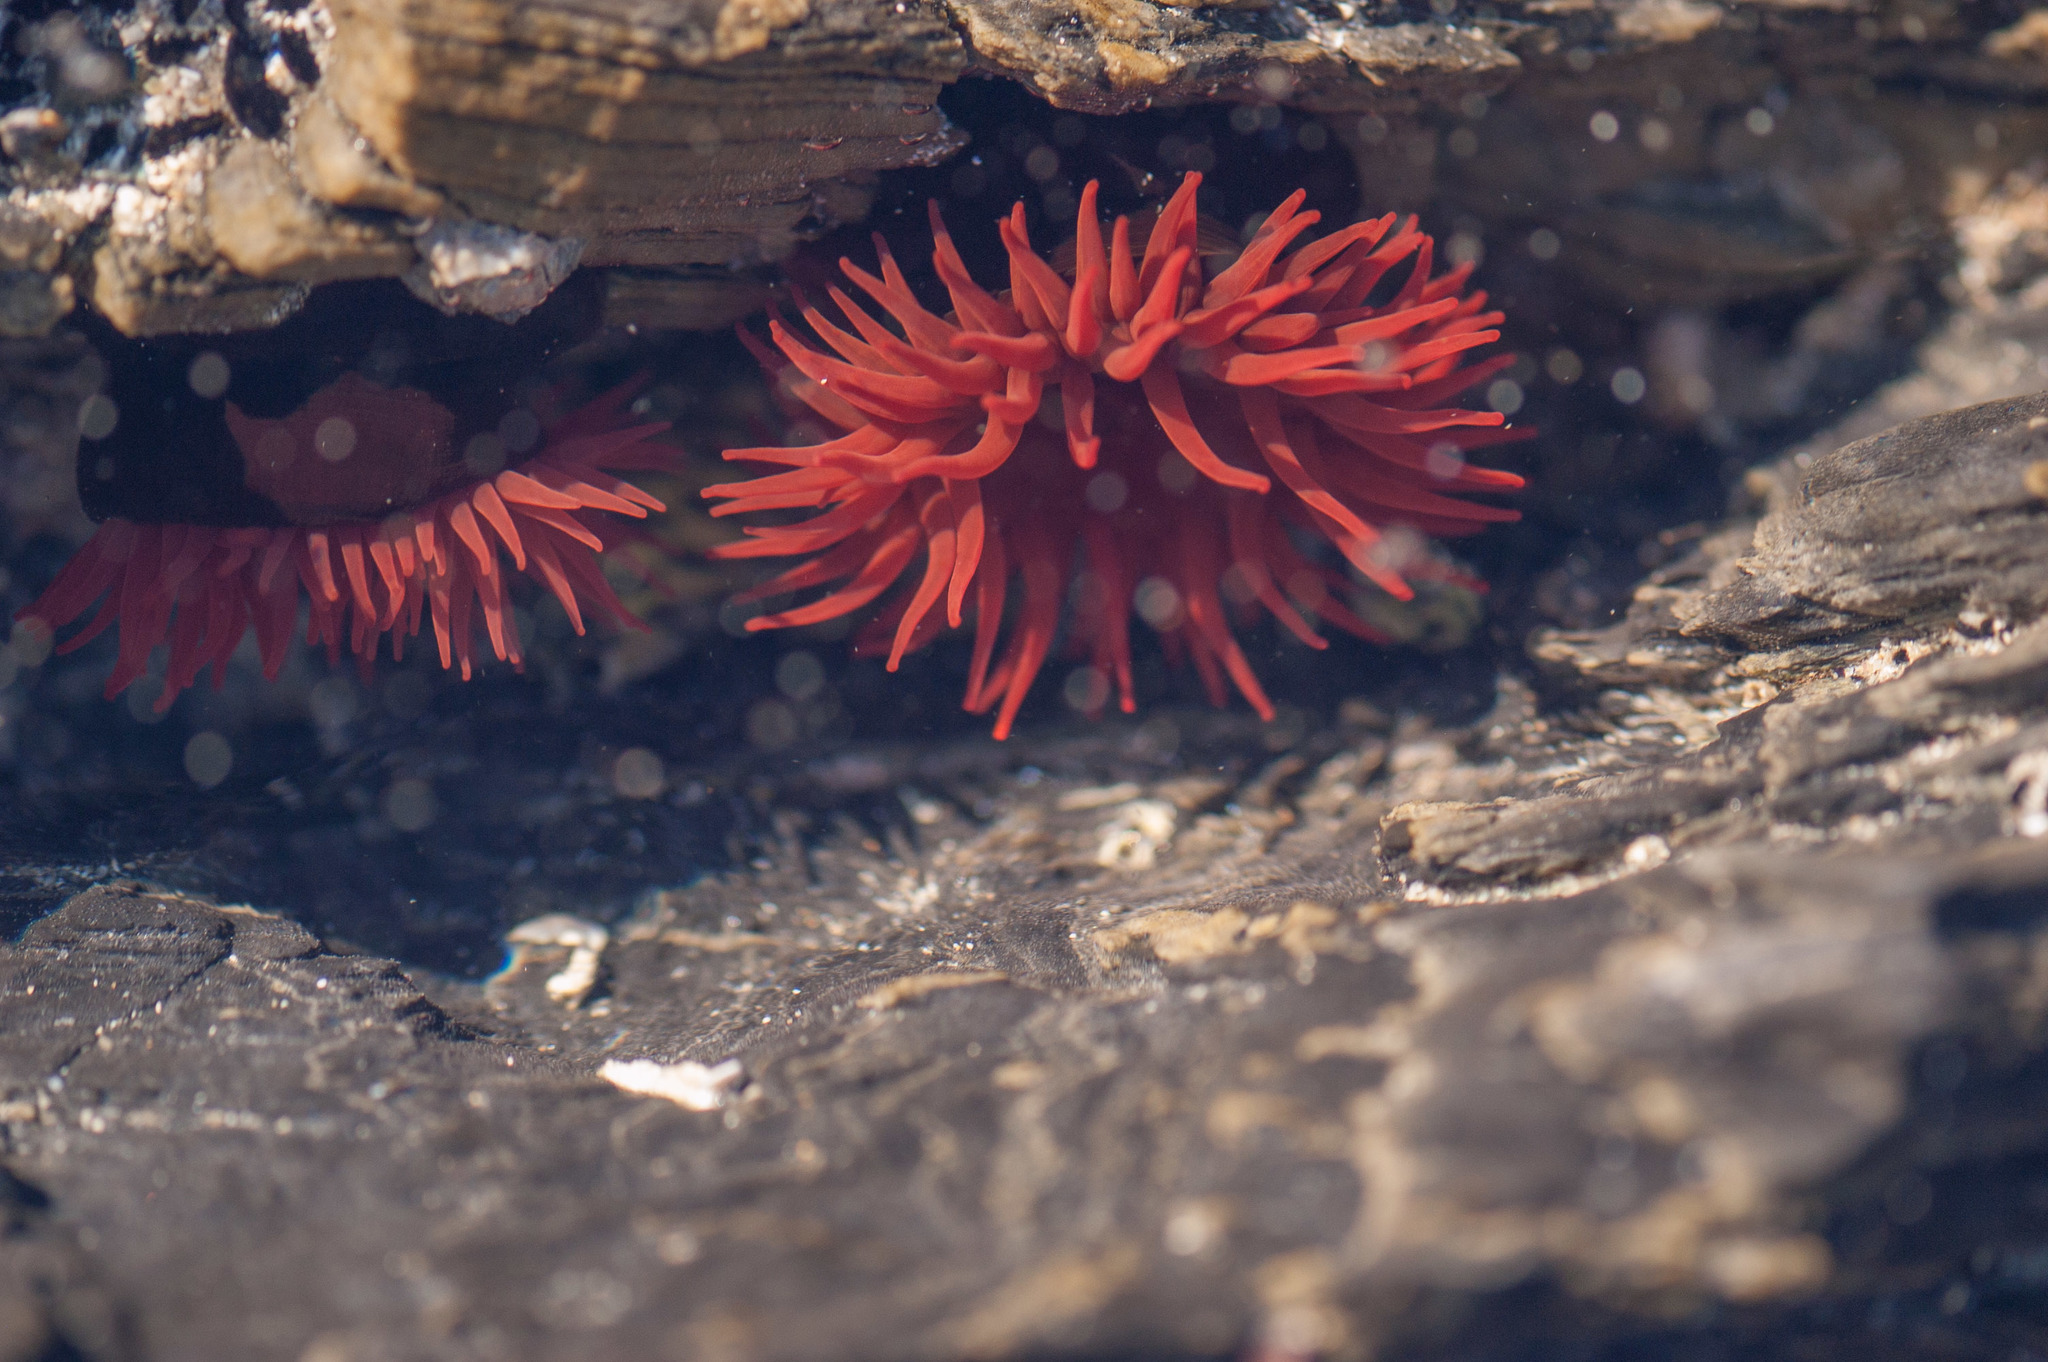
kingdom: Animalia
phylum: Cnidaria
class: Anthozoa
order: Actiniaria
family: Actiniidae
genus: Actinia
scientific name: Actinia tenebrosa
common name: Waratah anemone
